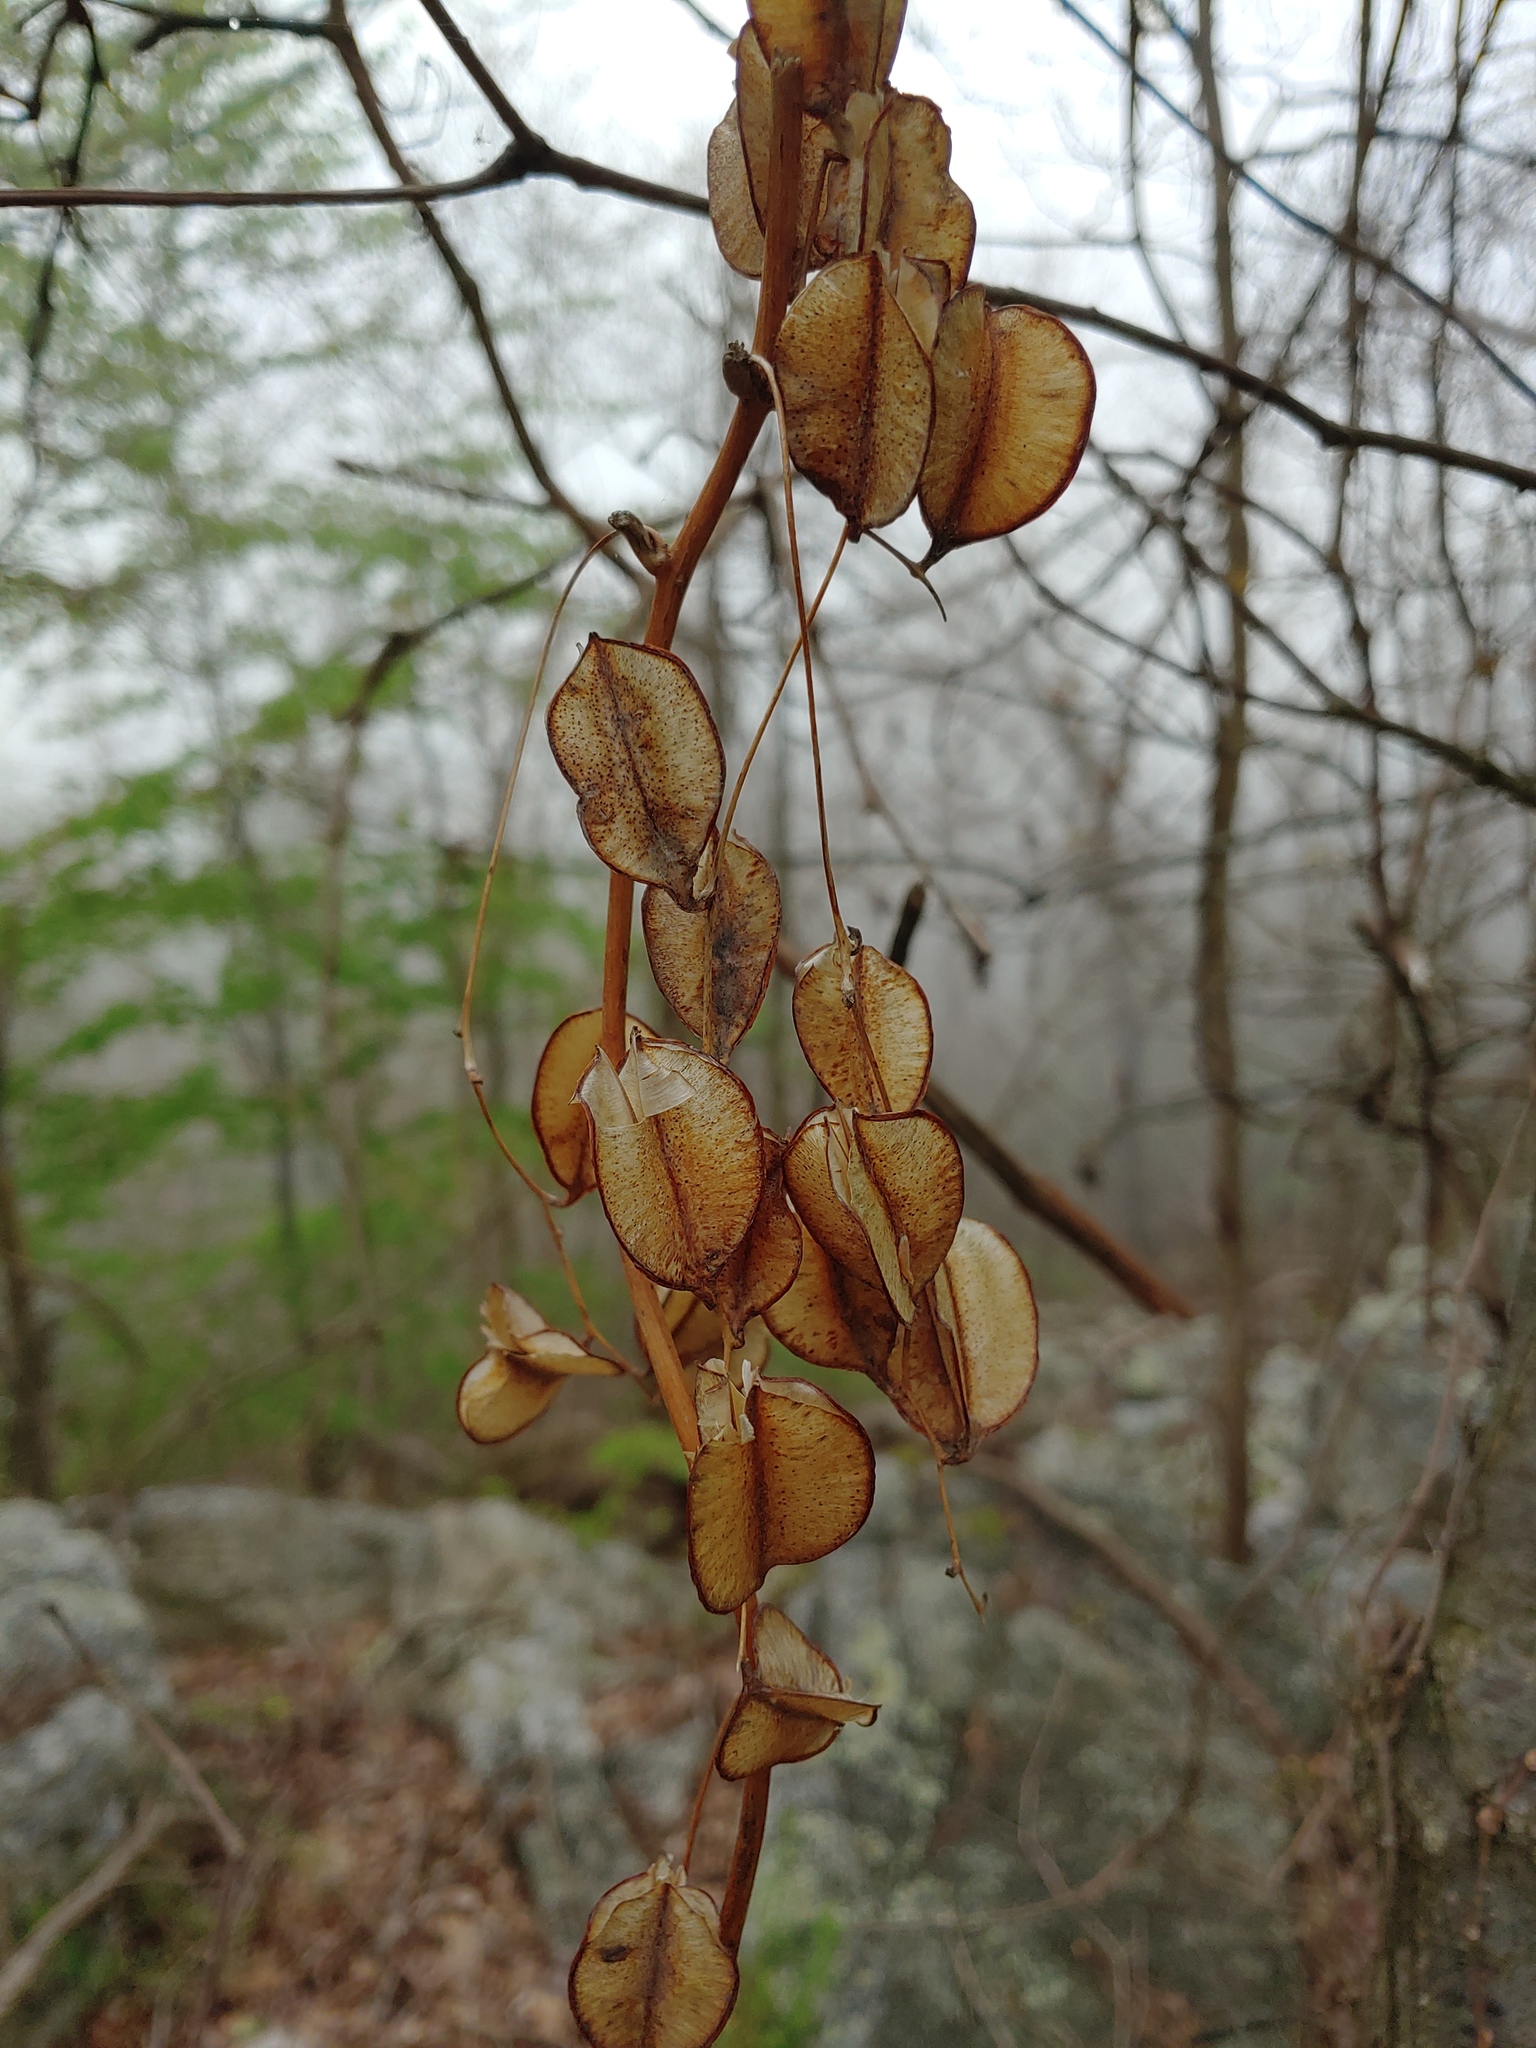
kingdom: Plantae
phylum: Tracheophyta
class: Liliopsida
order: Dioscoreales
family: Dioscoreaceae
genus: Dioscorea
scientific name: Dioscorea villosa
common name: Wild yam
